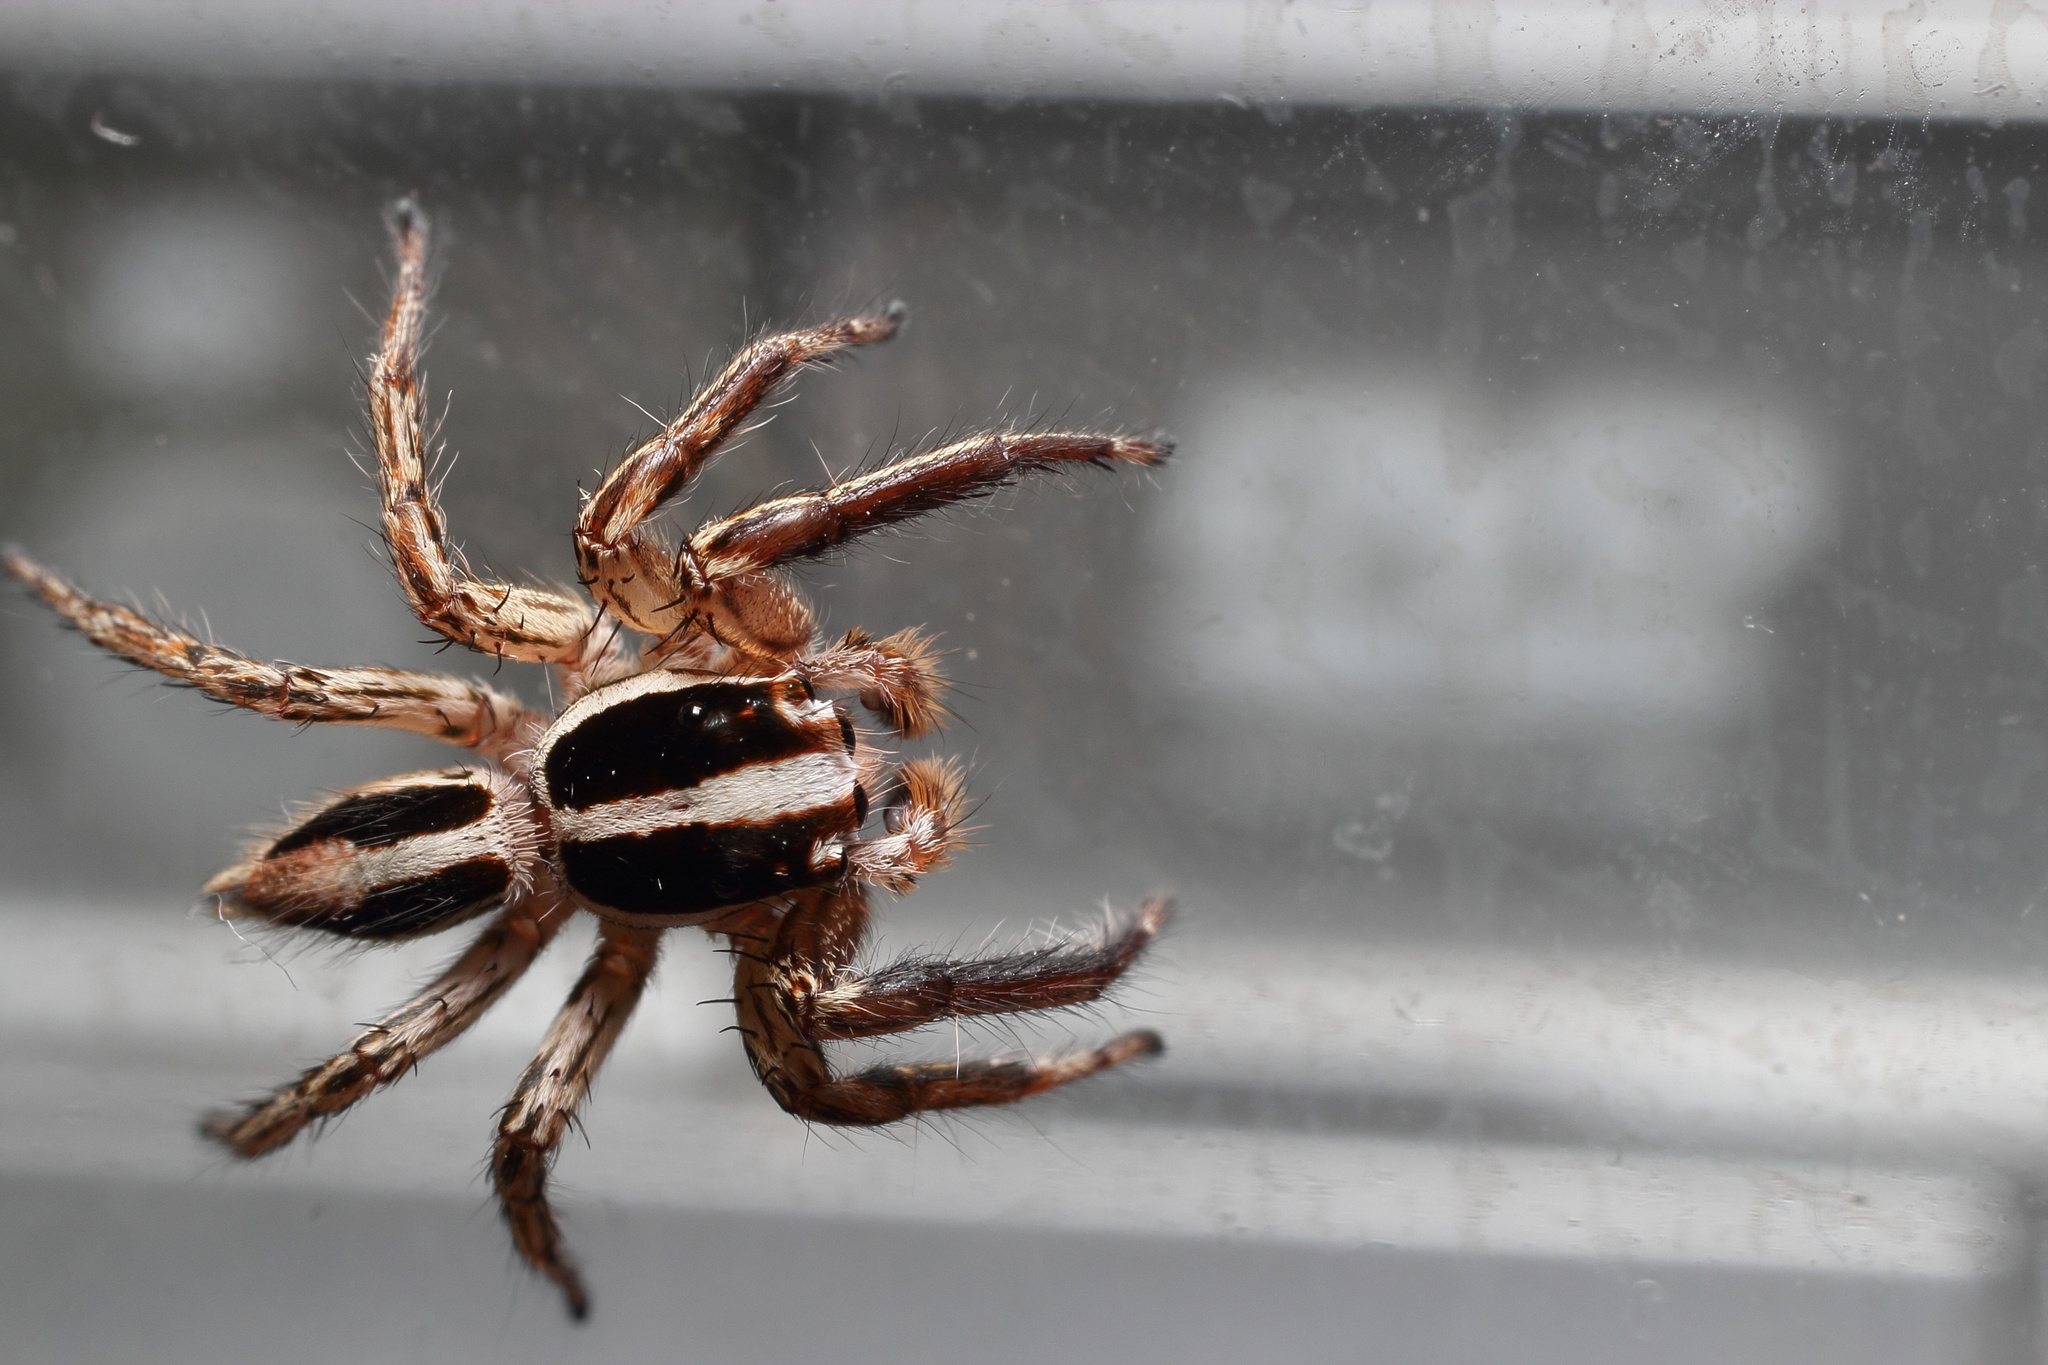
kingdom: Animalia
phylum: Arthropoda
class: Arachnida
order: Araneae
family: Salticidae
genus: Plexippus
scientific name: Plexippus paykulli
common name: Pantropical jumper
